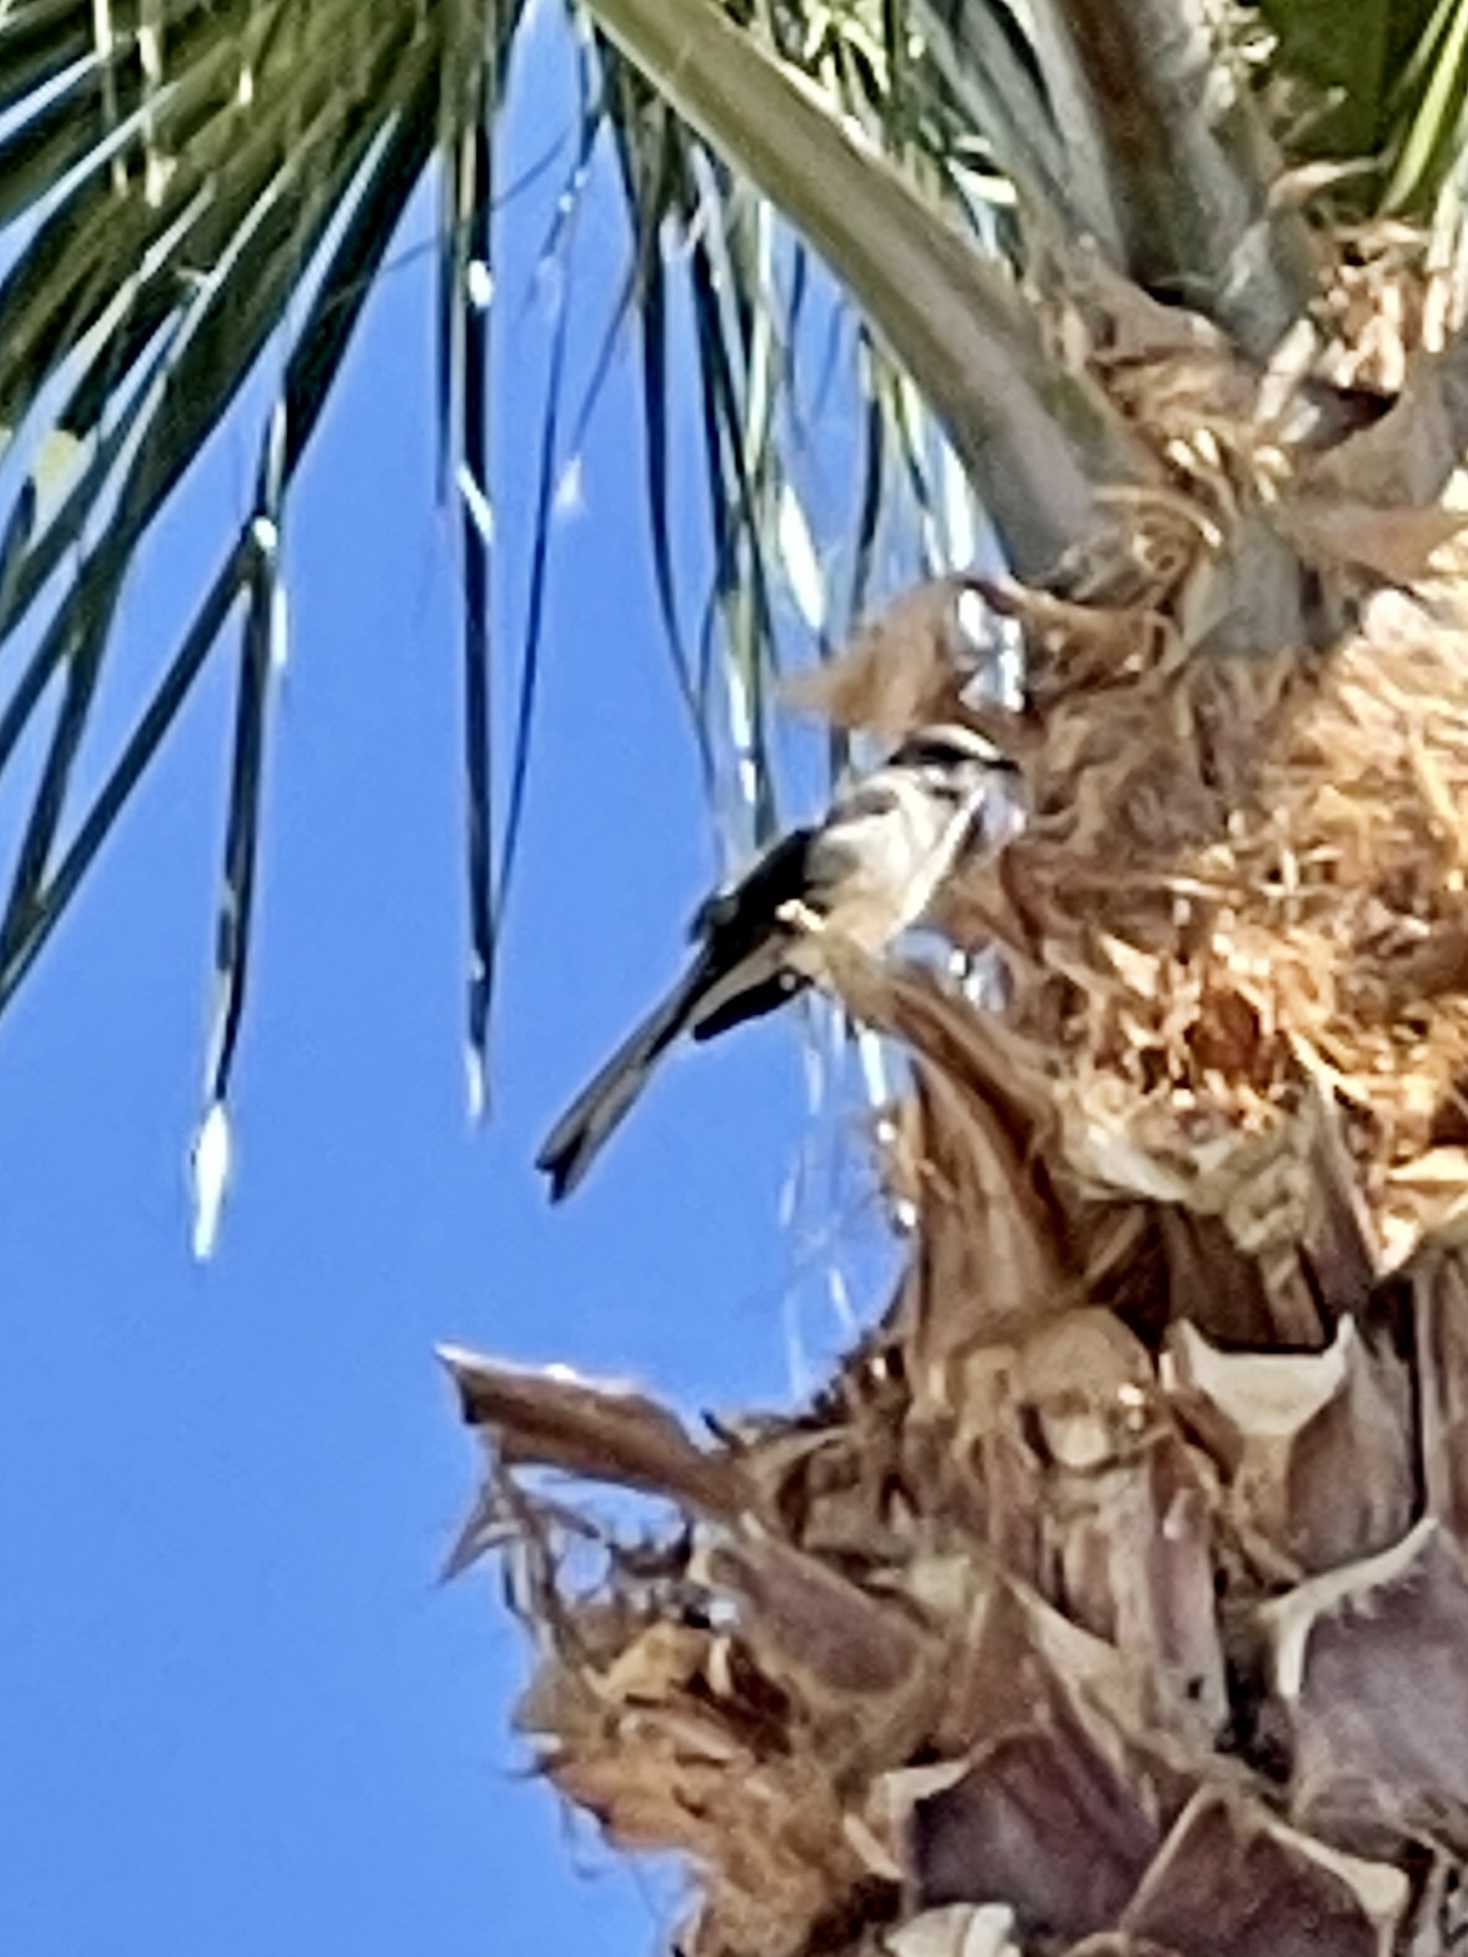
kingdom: Animalia
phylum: Chordata
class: Aves
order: Passeriformes
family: Mimidae
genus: Mimus
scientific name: Mimus polyglottos
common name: Northern mockingbird
